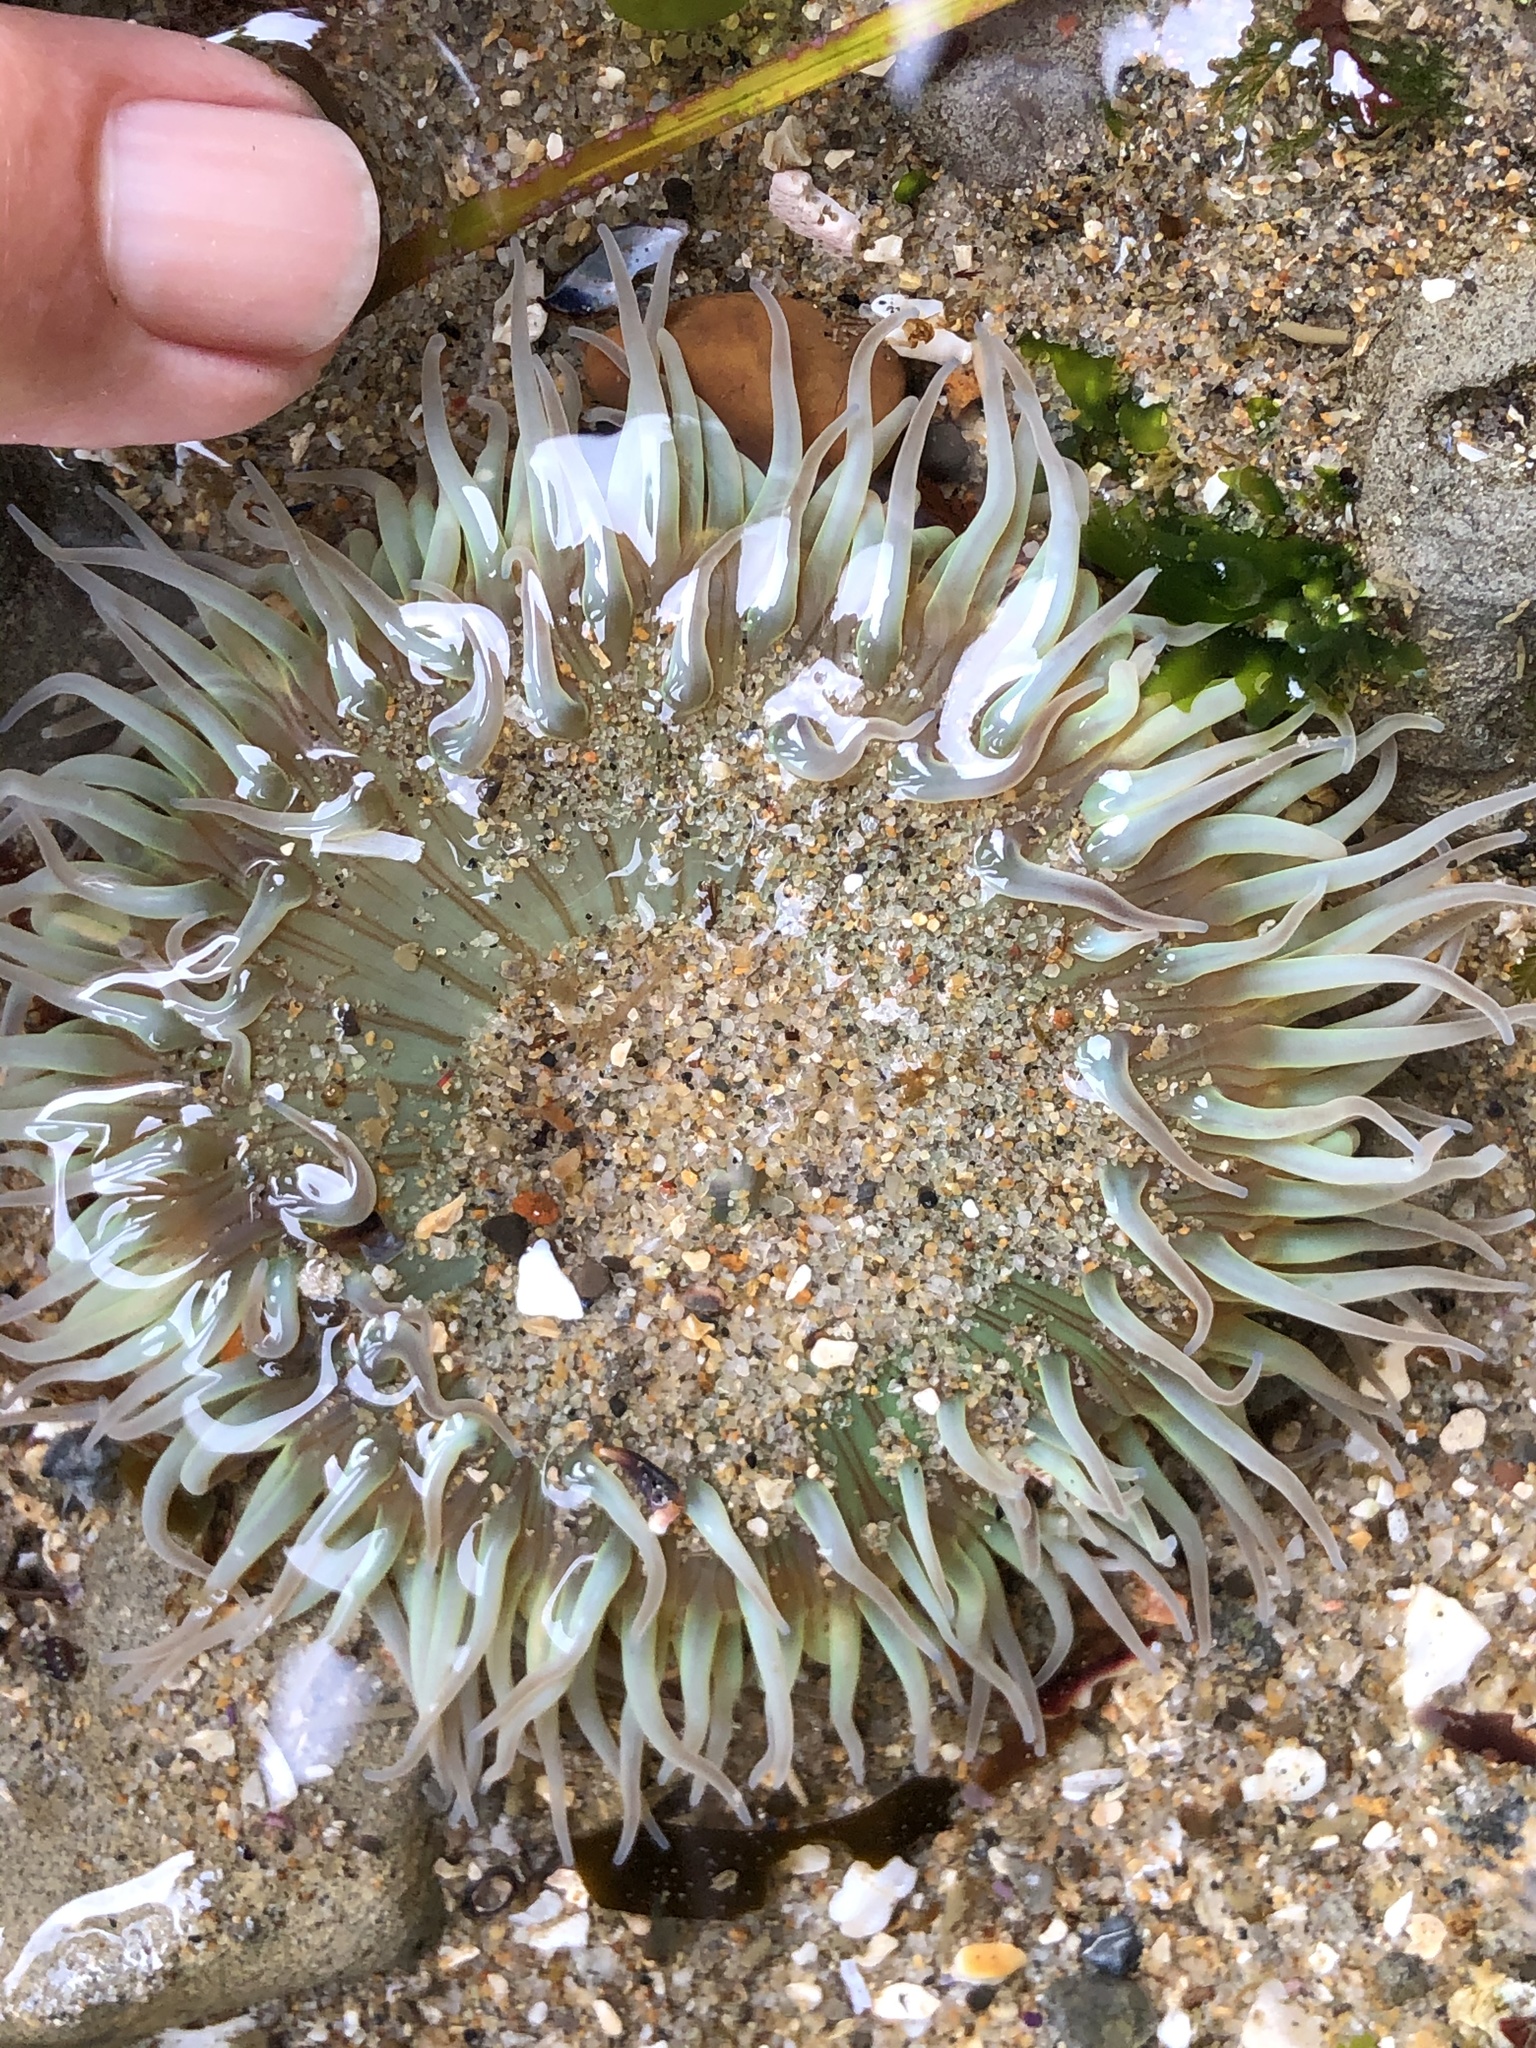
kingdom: Animalia
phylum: Cnidaria
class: Anthozoa
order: Actiniaria
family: Actiniidae
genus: Anthopleura
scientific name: Anthopleura sola
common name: Sun anemone
